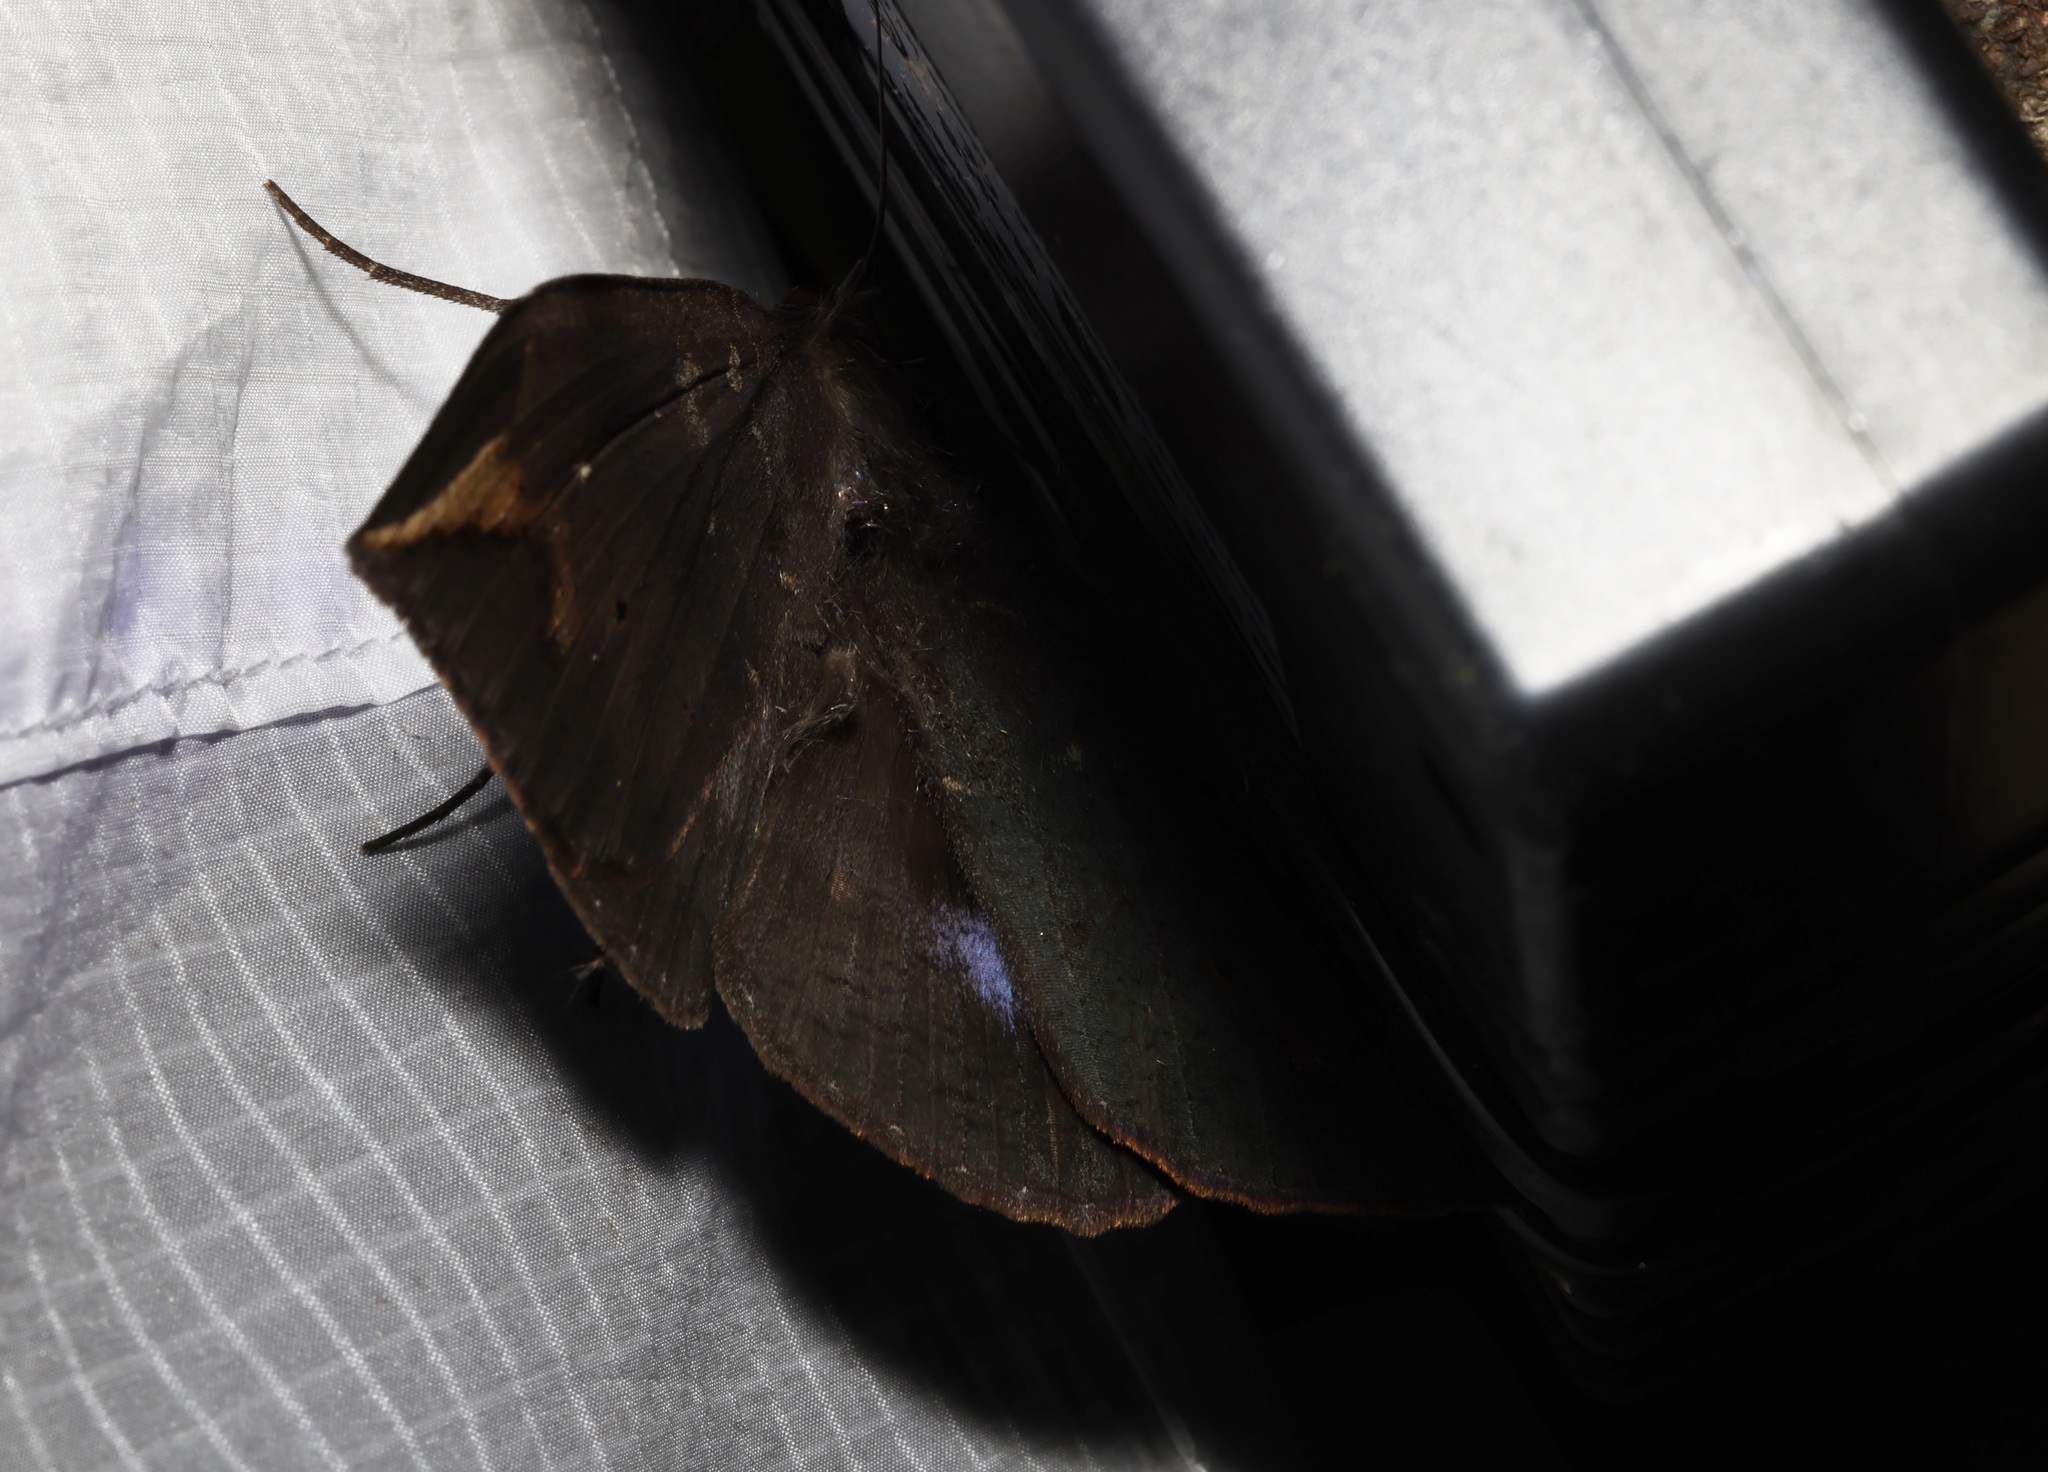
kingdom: Animalia
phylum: Arthropoda
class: Insecta
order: Lepidoptera
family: Erebidae
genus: Ischyja
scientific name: Ischyja ferrifracta
